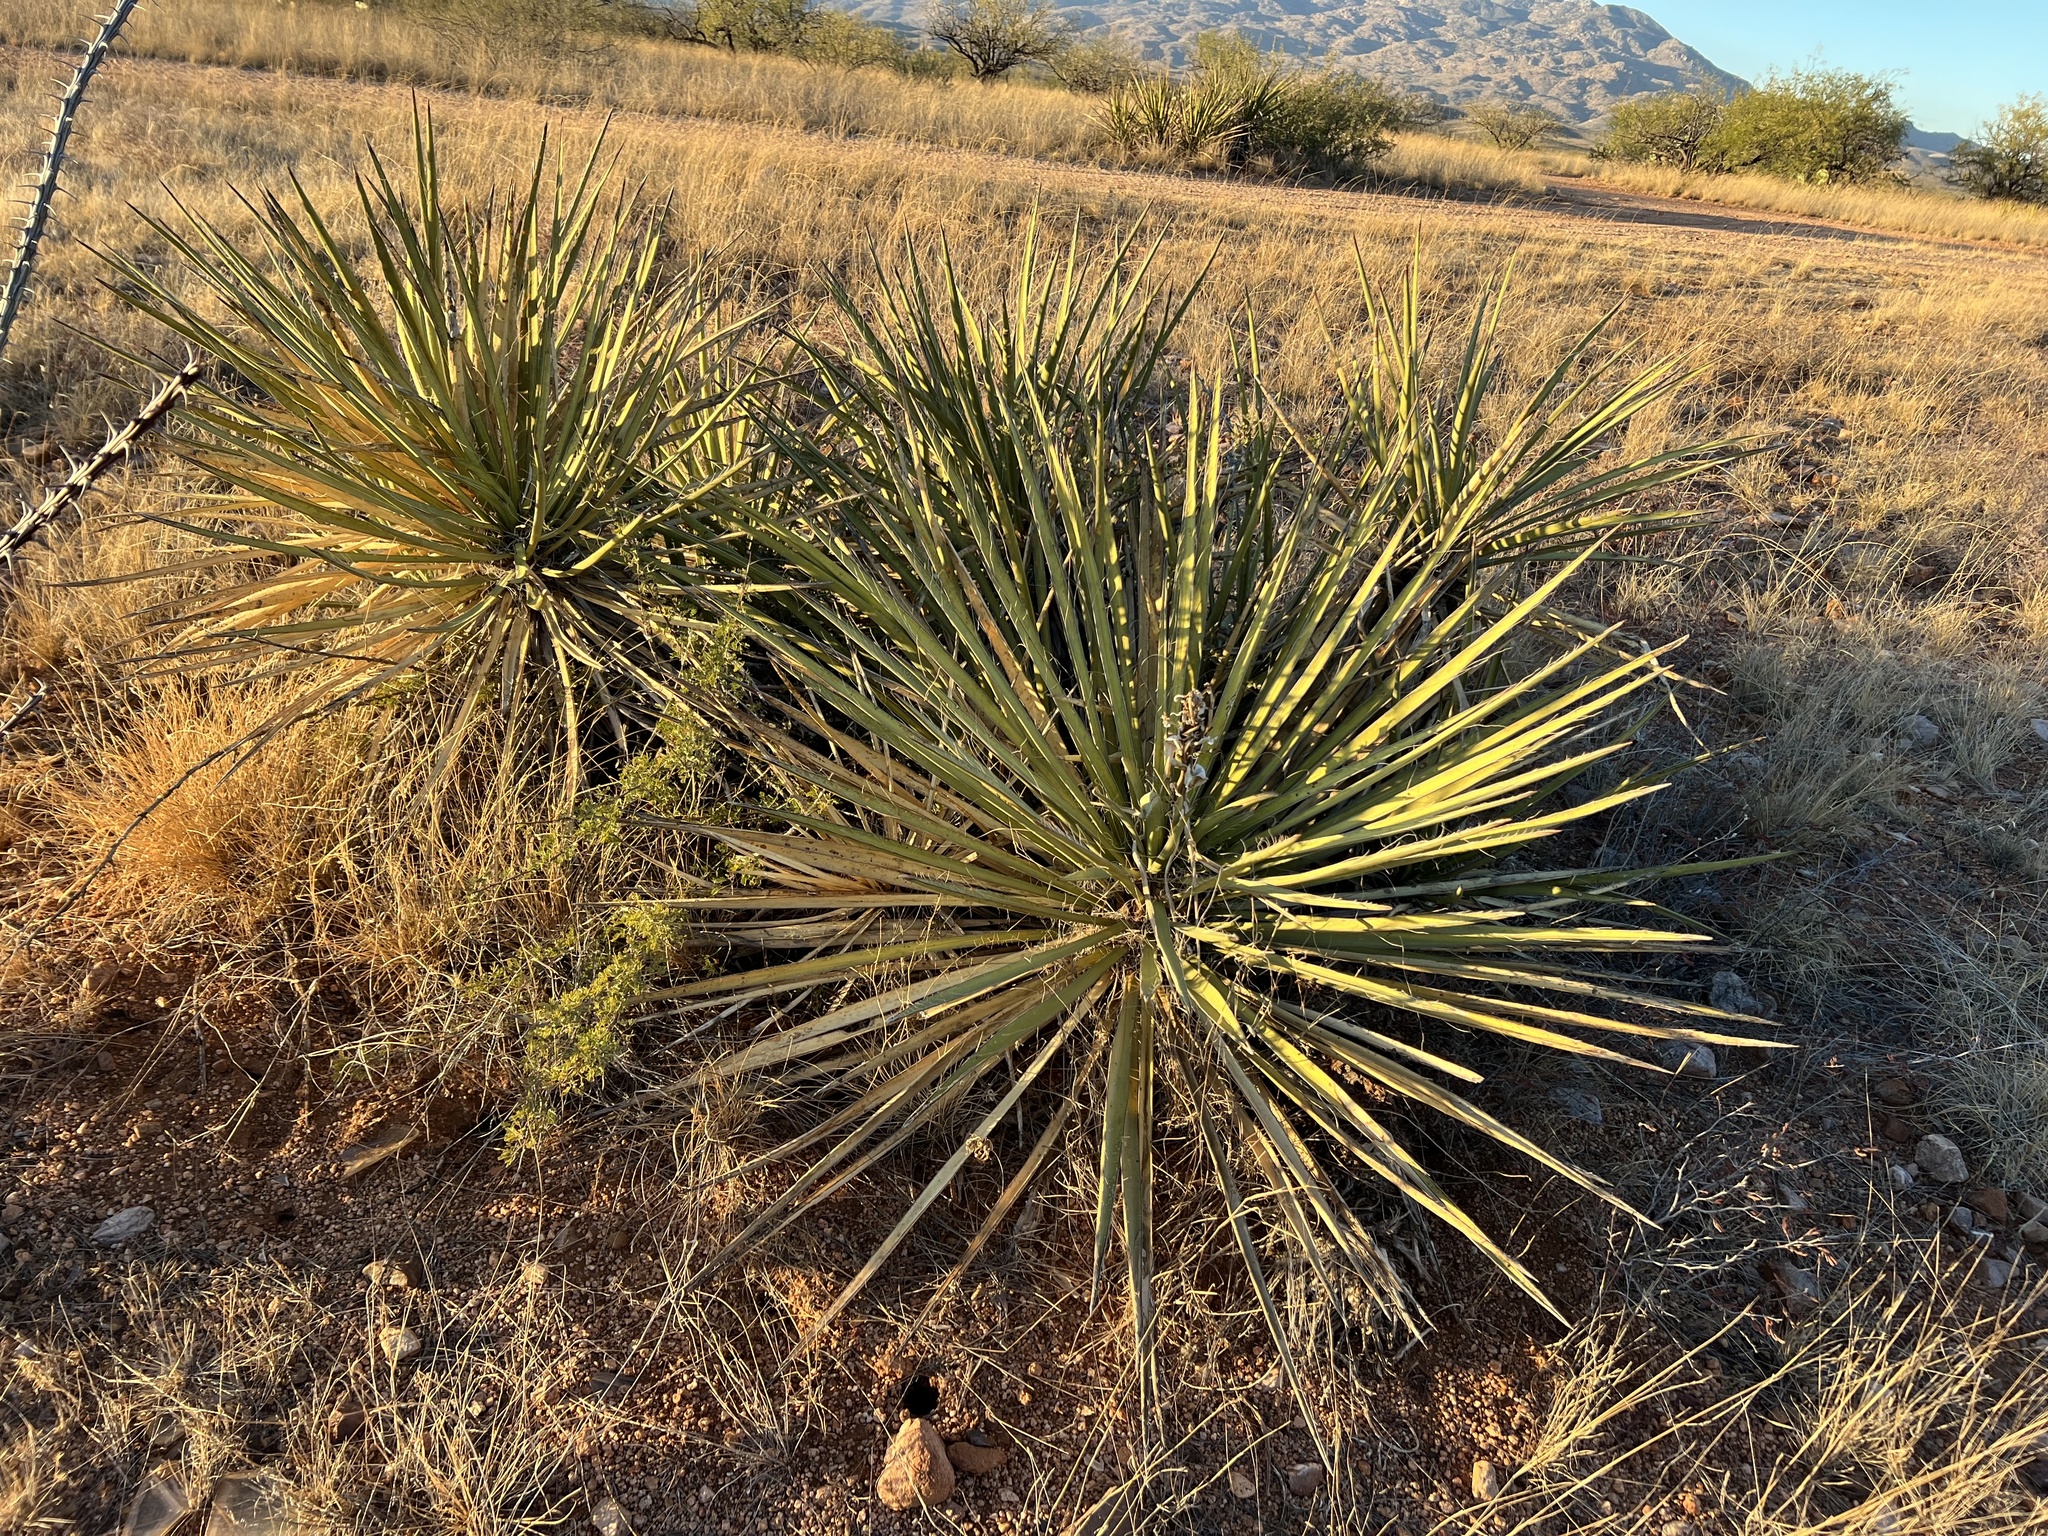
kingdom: Plantae
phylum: Tracheophyta
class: Liliopsida
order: Asparagales
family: Asparagaceae
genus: Yucca
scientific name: Yucca baccata
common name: Banana yucca
